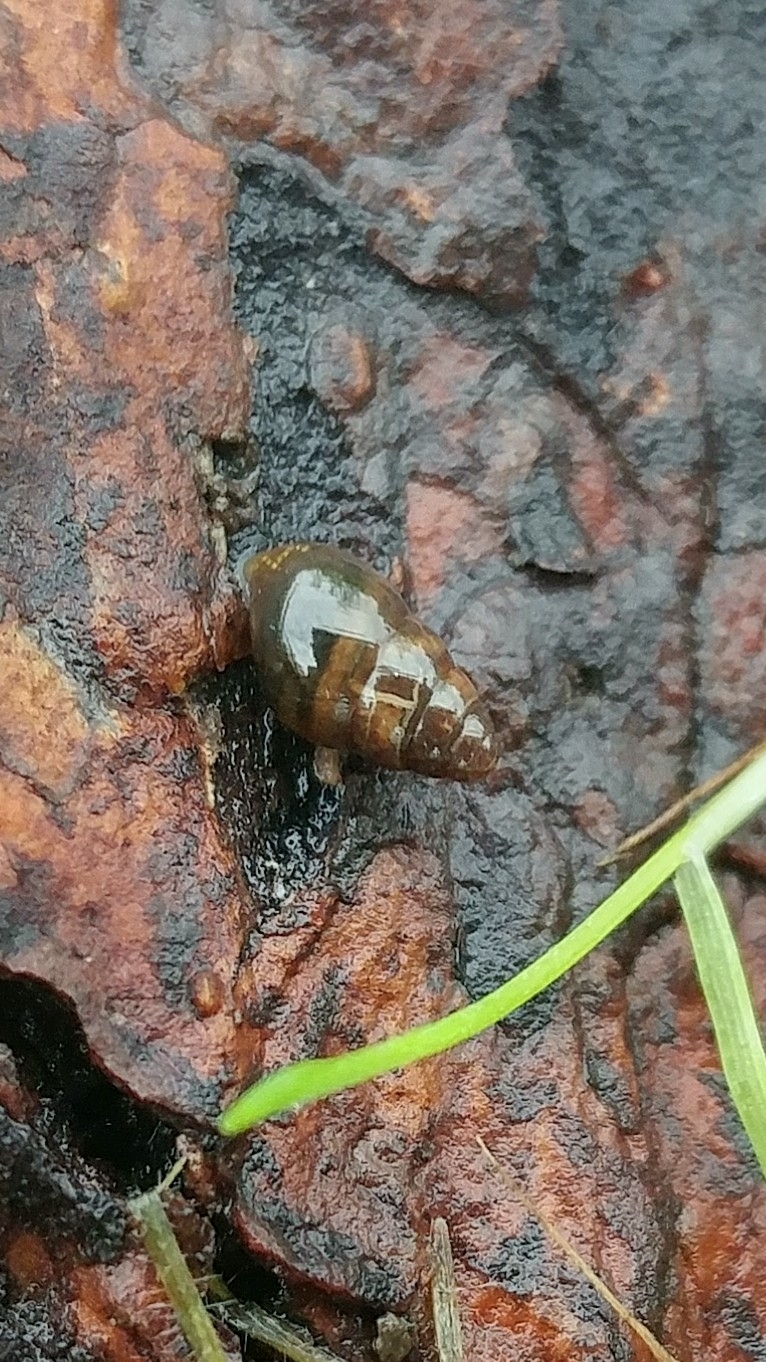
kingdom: Animalia
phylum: Mollusca
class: Gastropoda
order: Stylommatophora
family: Cochlicopidae
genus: Cochlicopa
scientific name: Cochlicopa lubrica
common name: Glossy pillar snail
